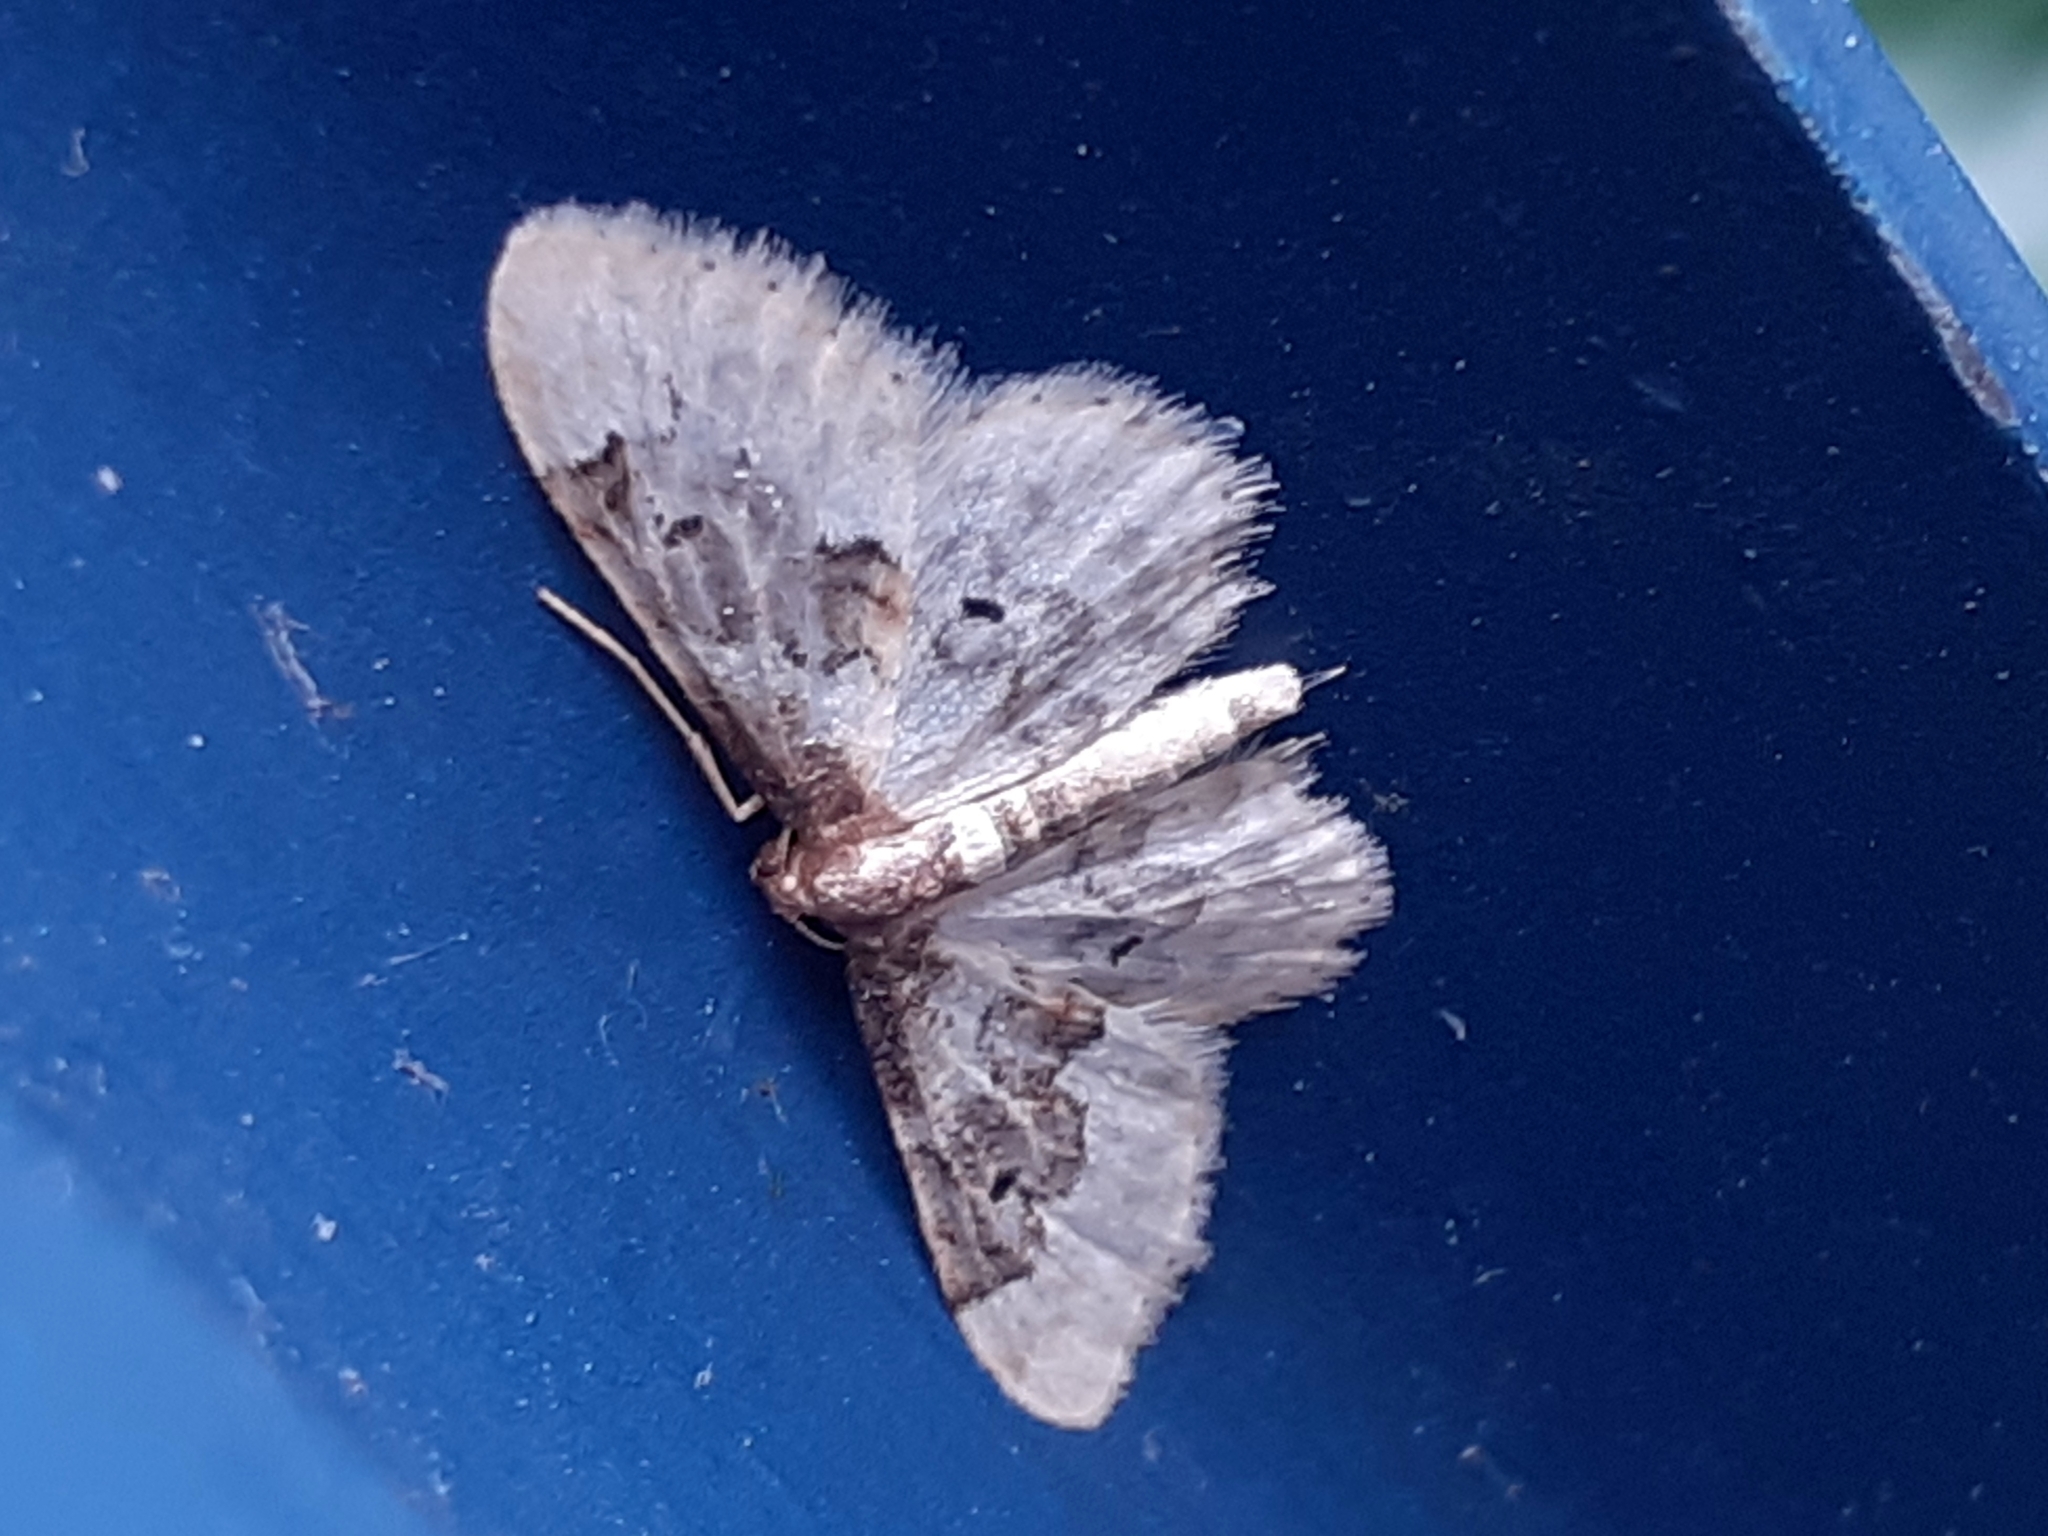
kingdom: Animalia
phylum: Arthropoda
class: Insecta
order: Lepidoptera
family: Geometridae
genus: Idaea
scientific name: Idaea rusticata
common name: Least carpet
